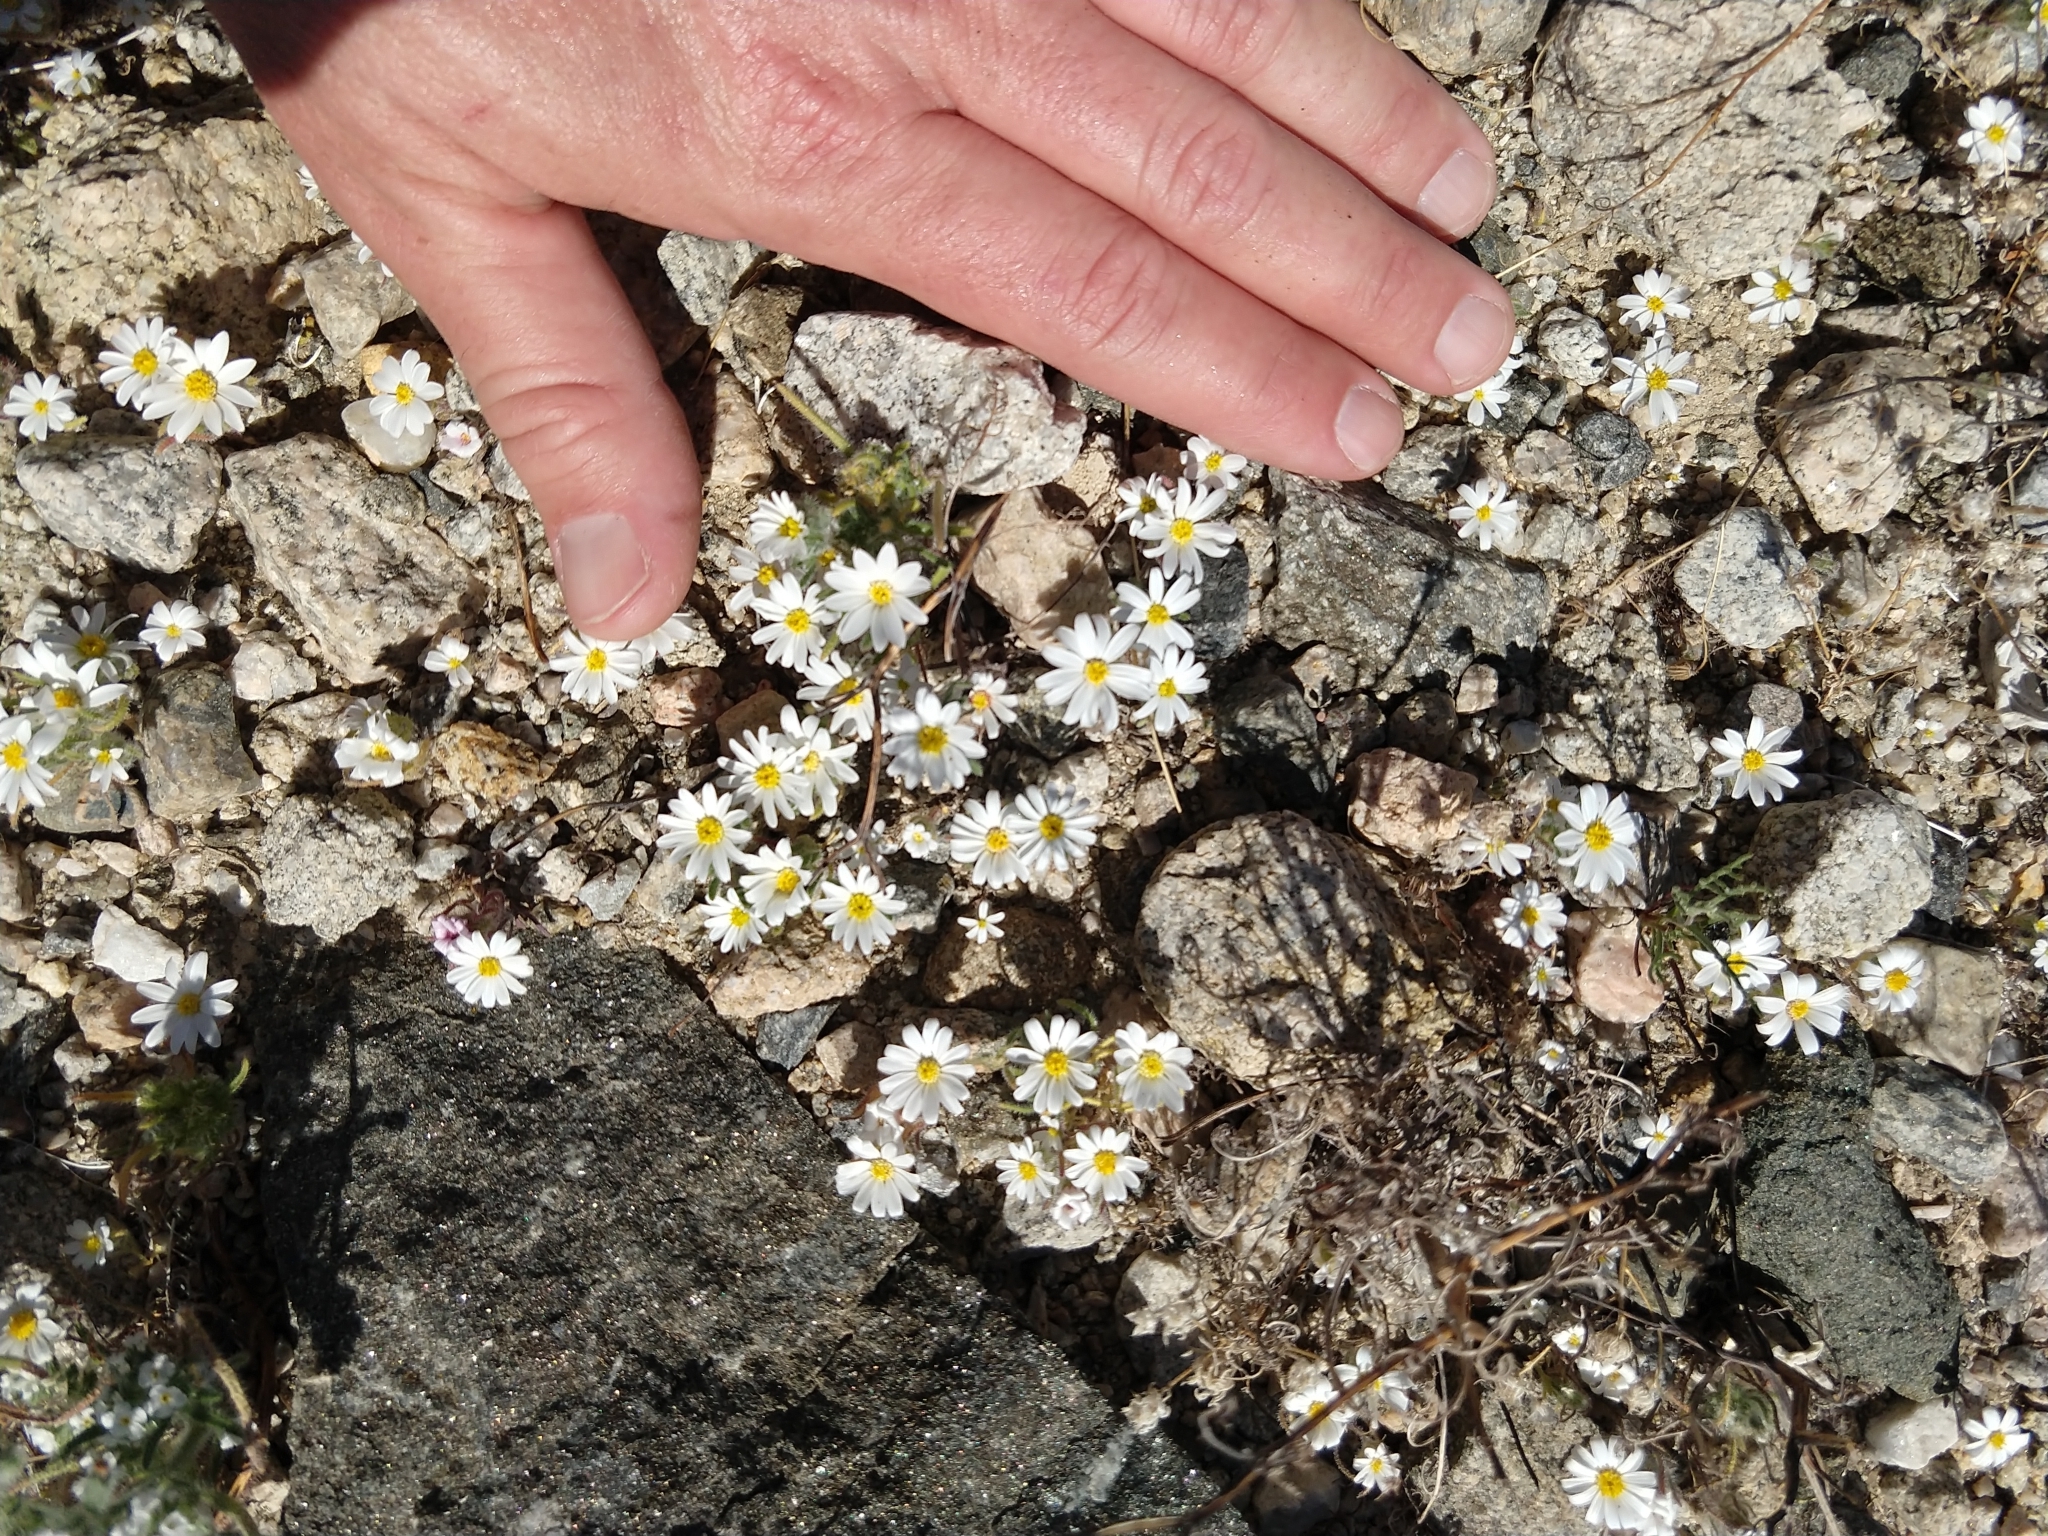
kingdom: Plantae
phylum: Tracheophyta
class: Magnoliopsida
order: Asterales
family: Asteraceae
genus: Monoptilon
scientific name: Monoptilon bellioides
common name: Bristly desertstar
